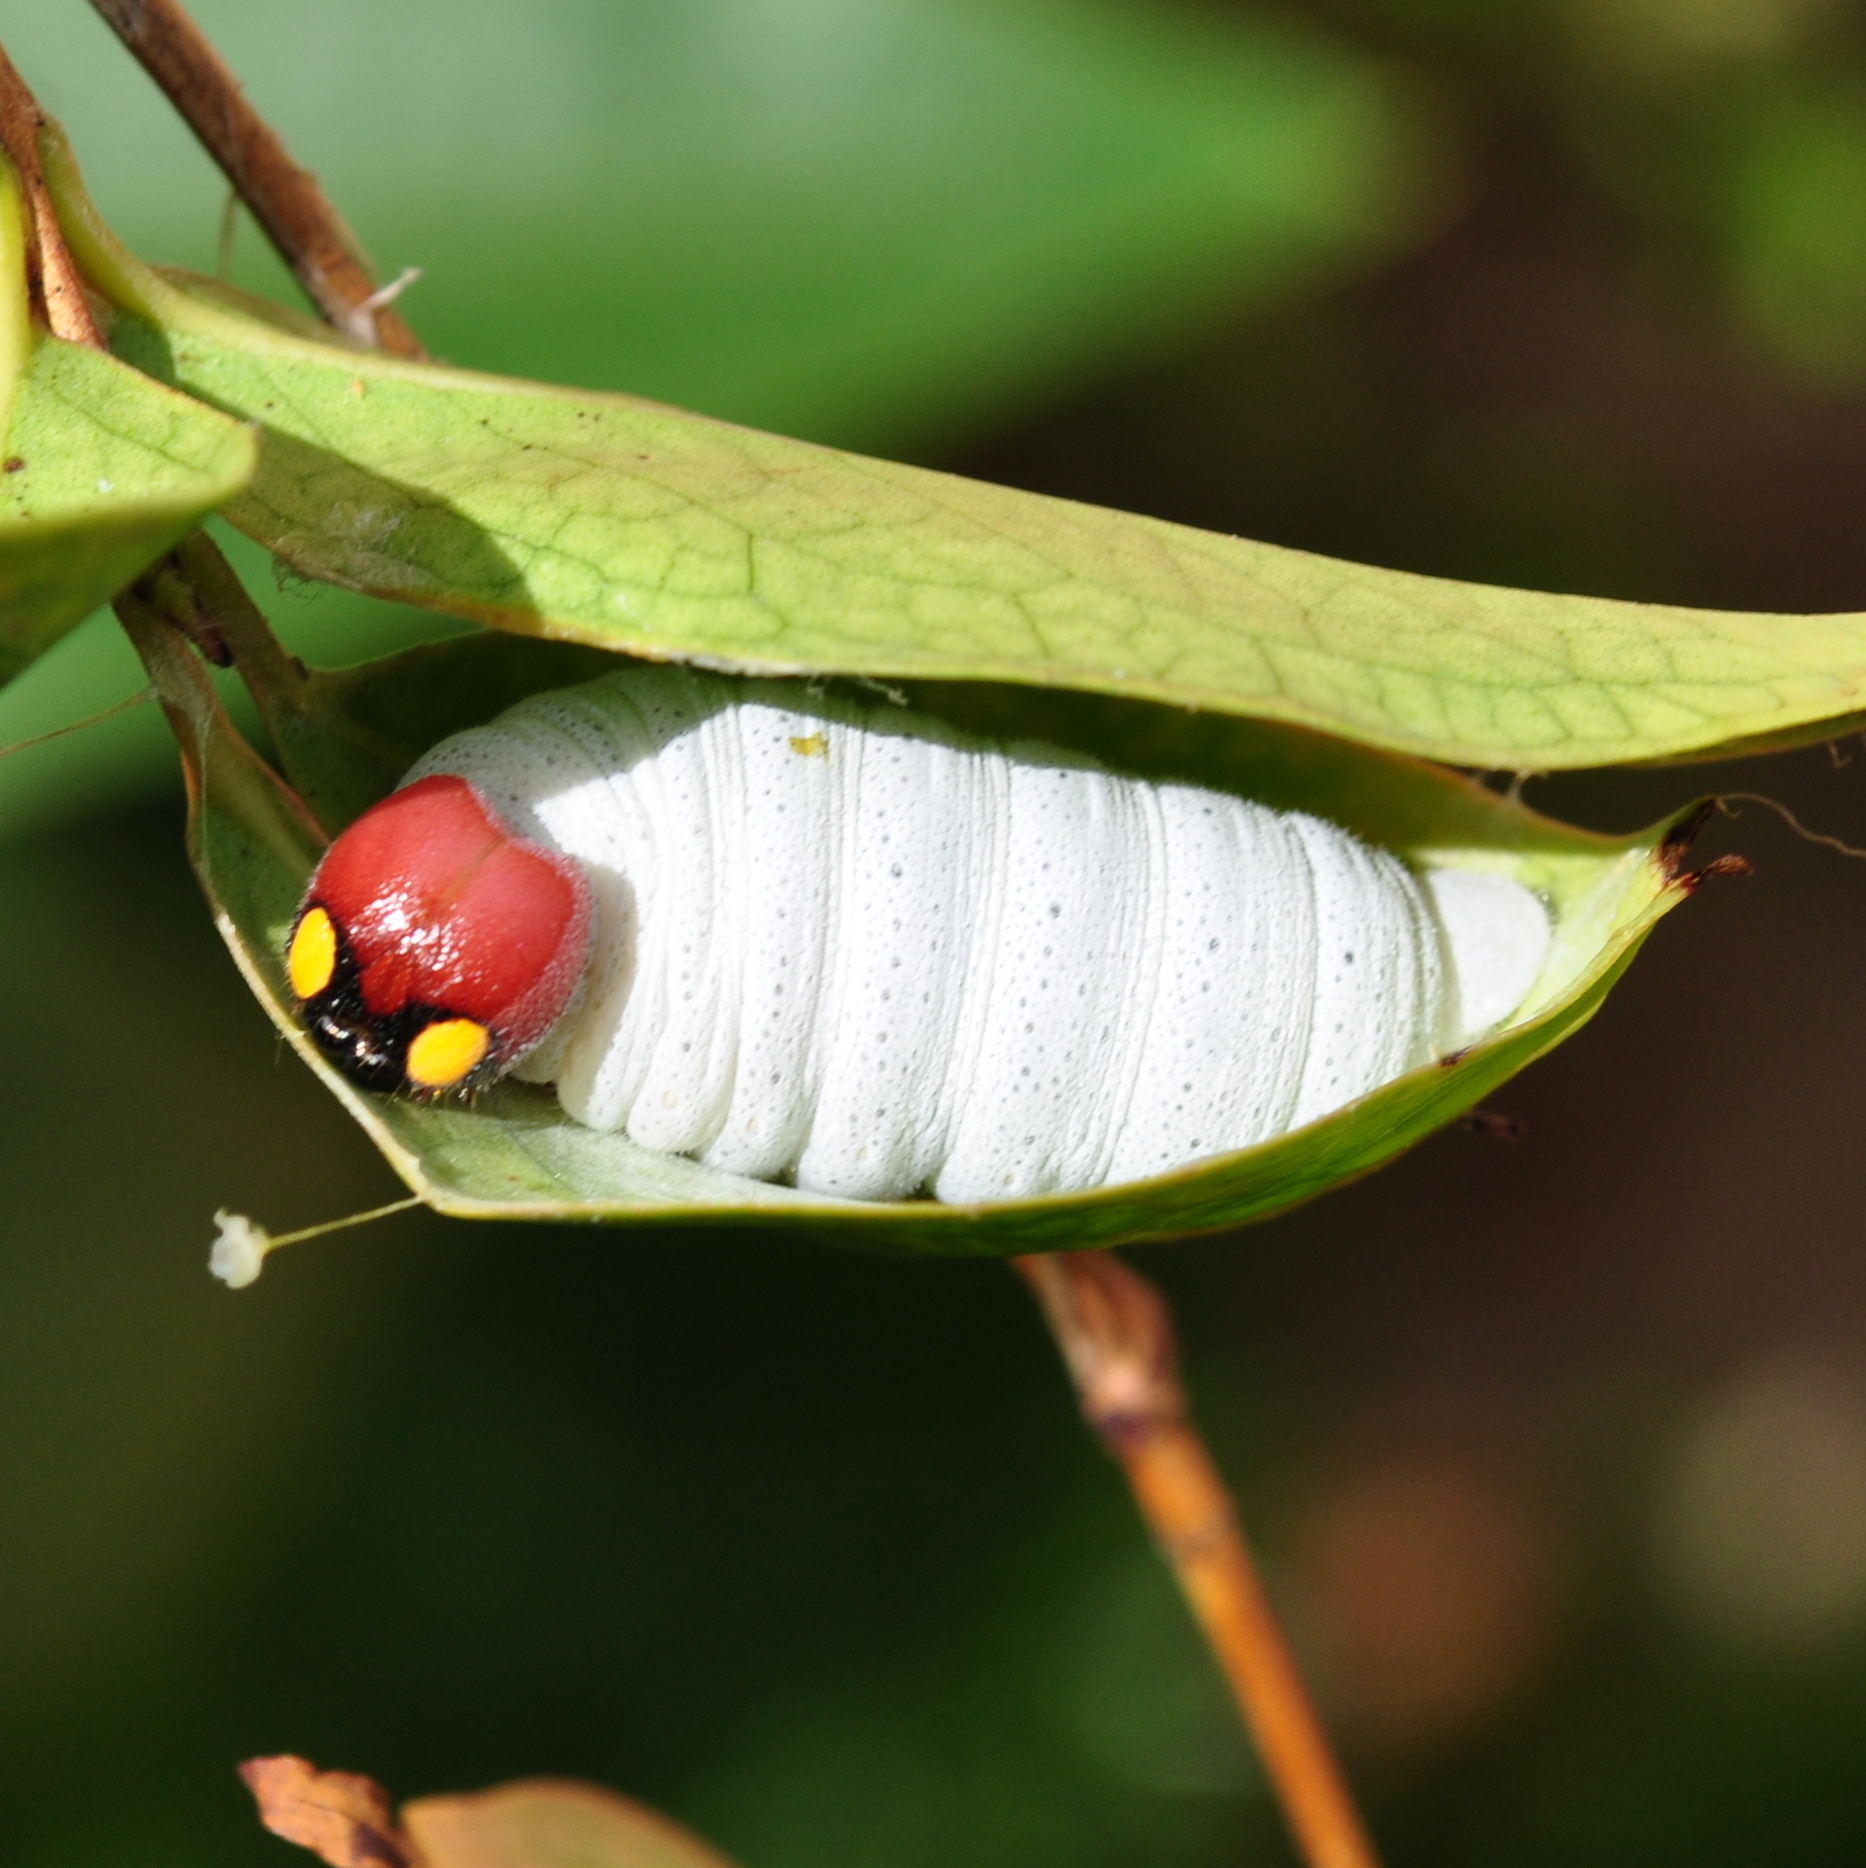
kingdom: Animalia
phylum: Arthropoda
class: Insecta
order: Lepidoptera
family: Hesperiidae
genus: Phocides
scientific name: Phocides polybius
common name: Guava skipper
